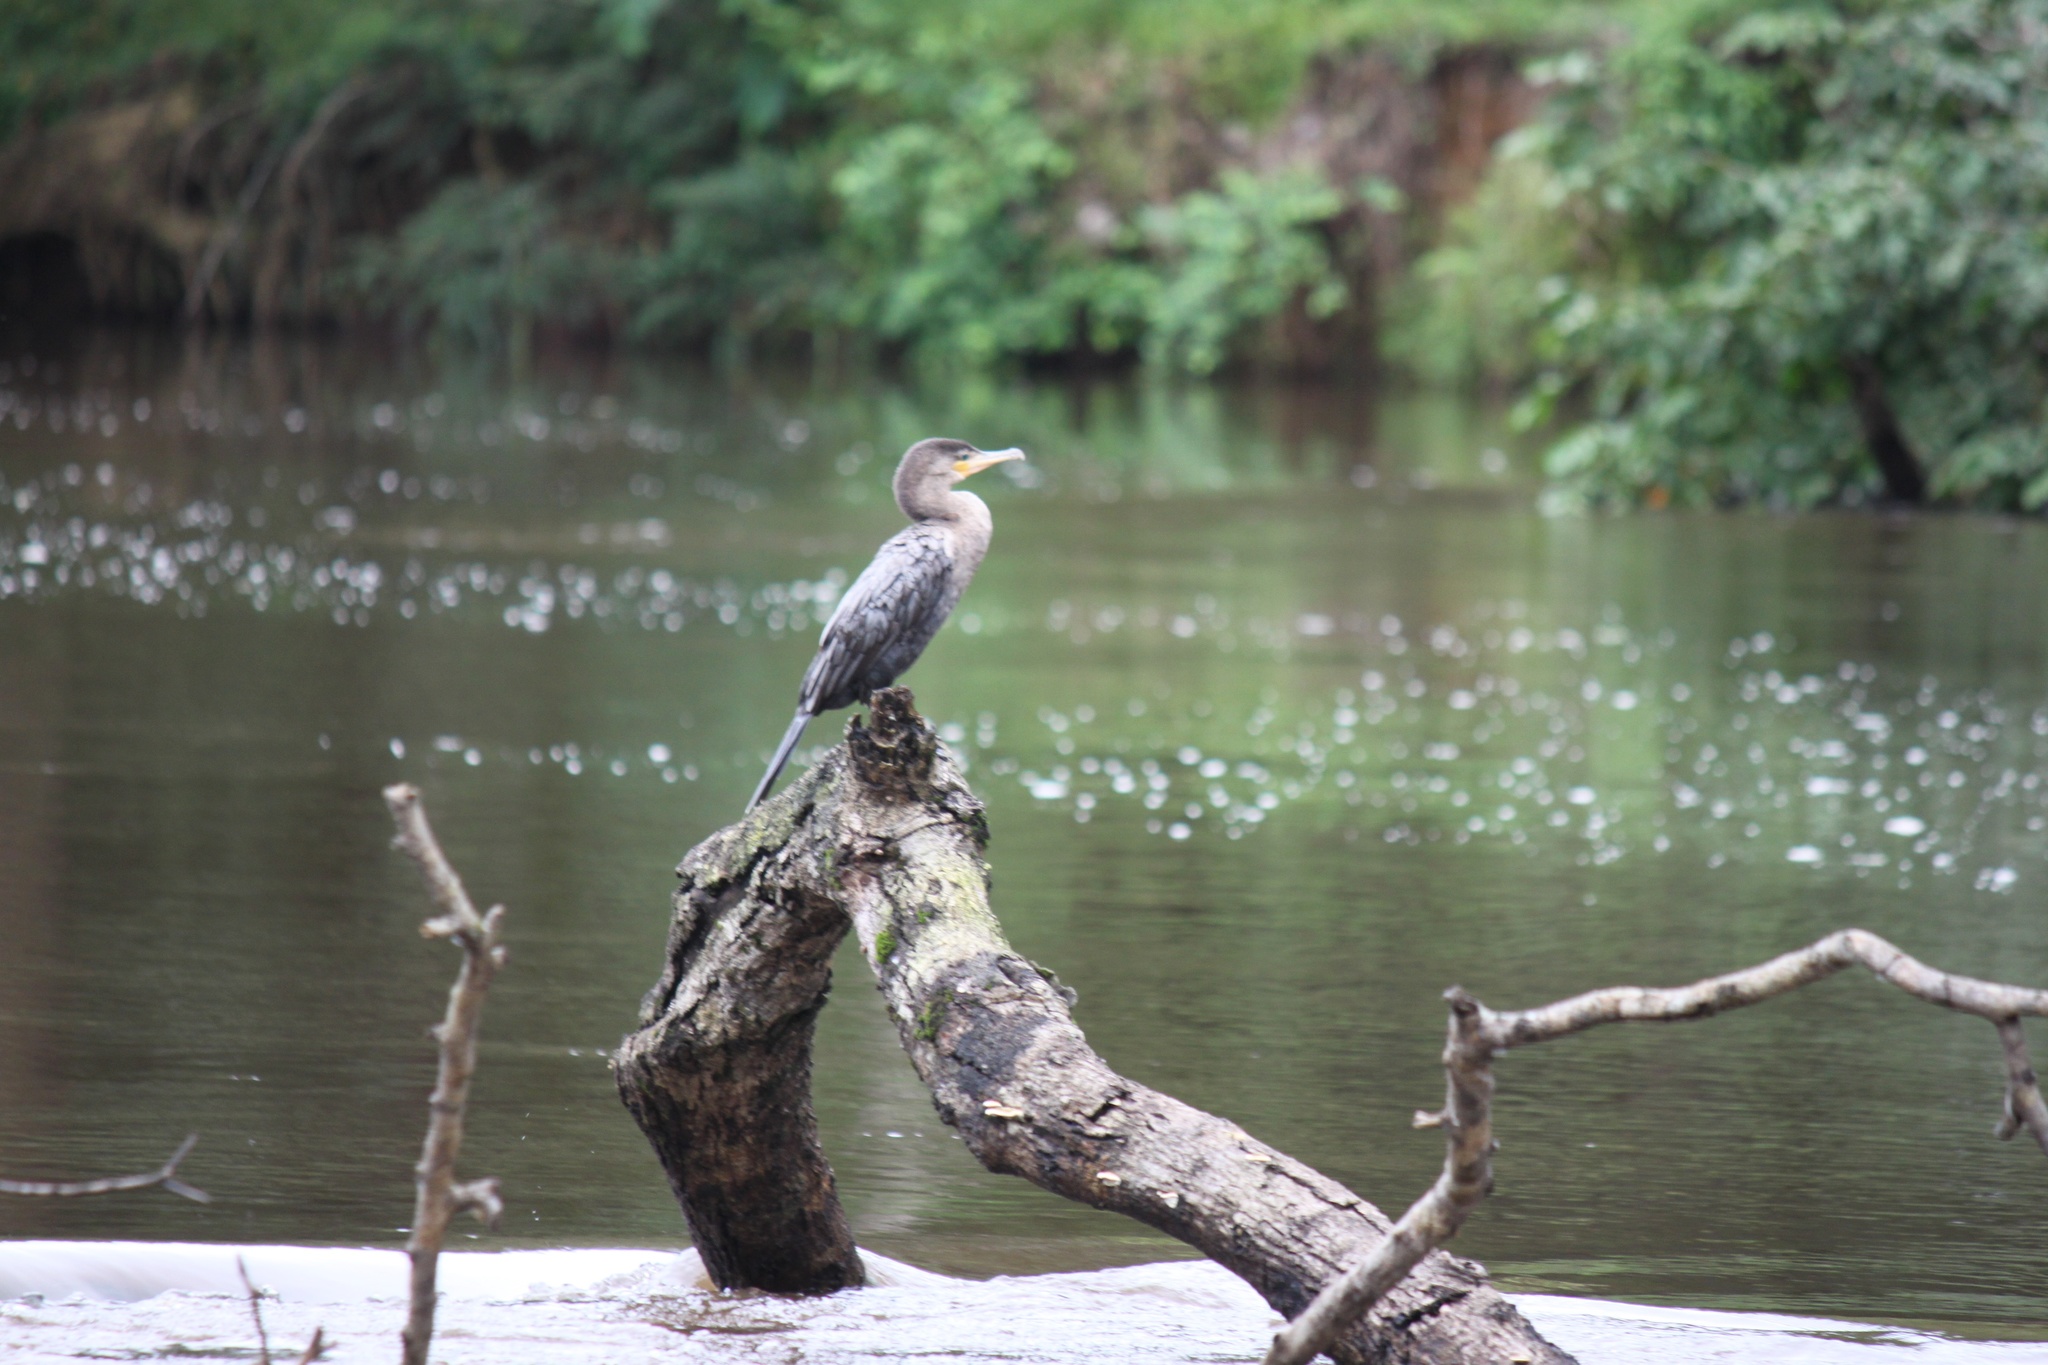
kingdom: Animalia
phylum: Chordata
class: Aves
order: Suliformes
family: Phalacrocoracidae
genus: Phalacrocorax
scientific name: Phalacrocorax brasilianus
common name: Neotropic cormorant
